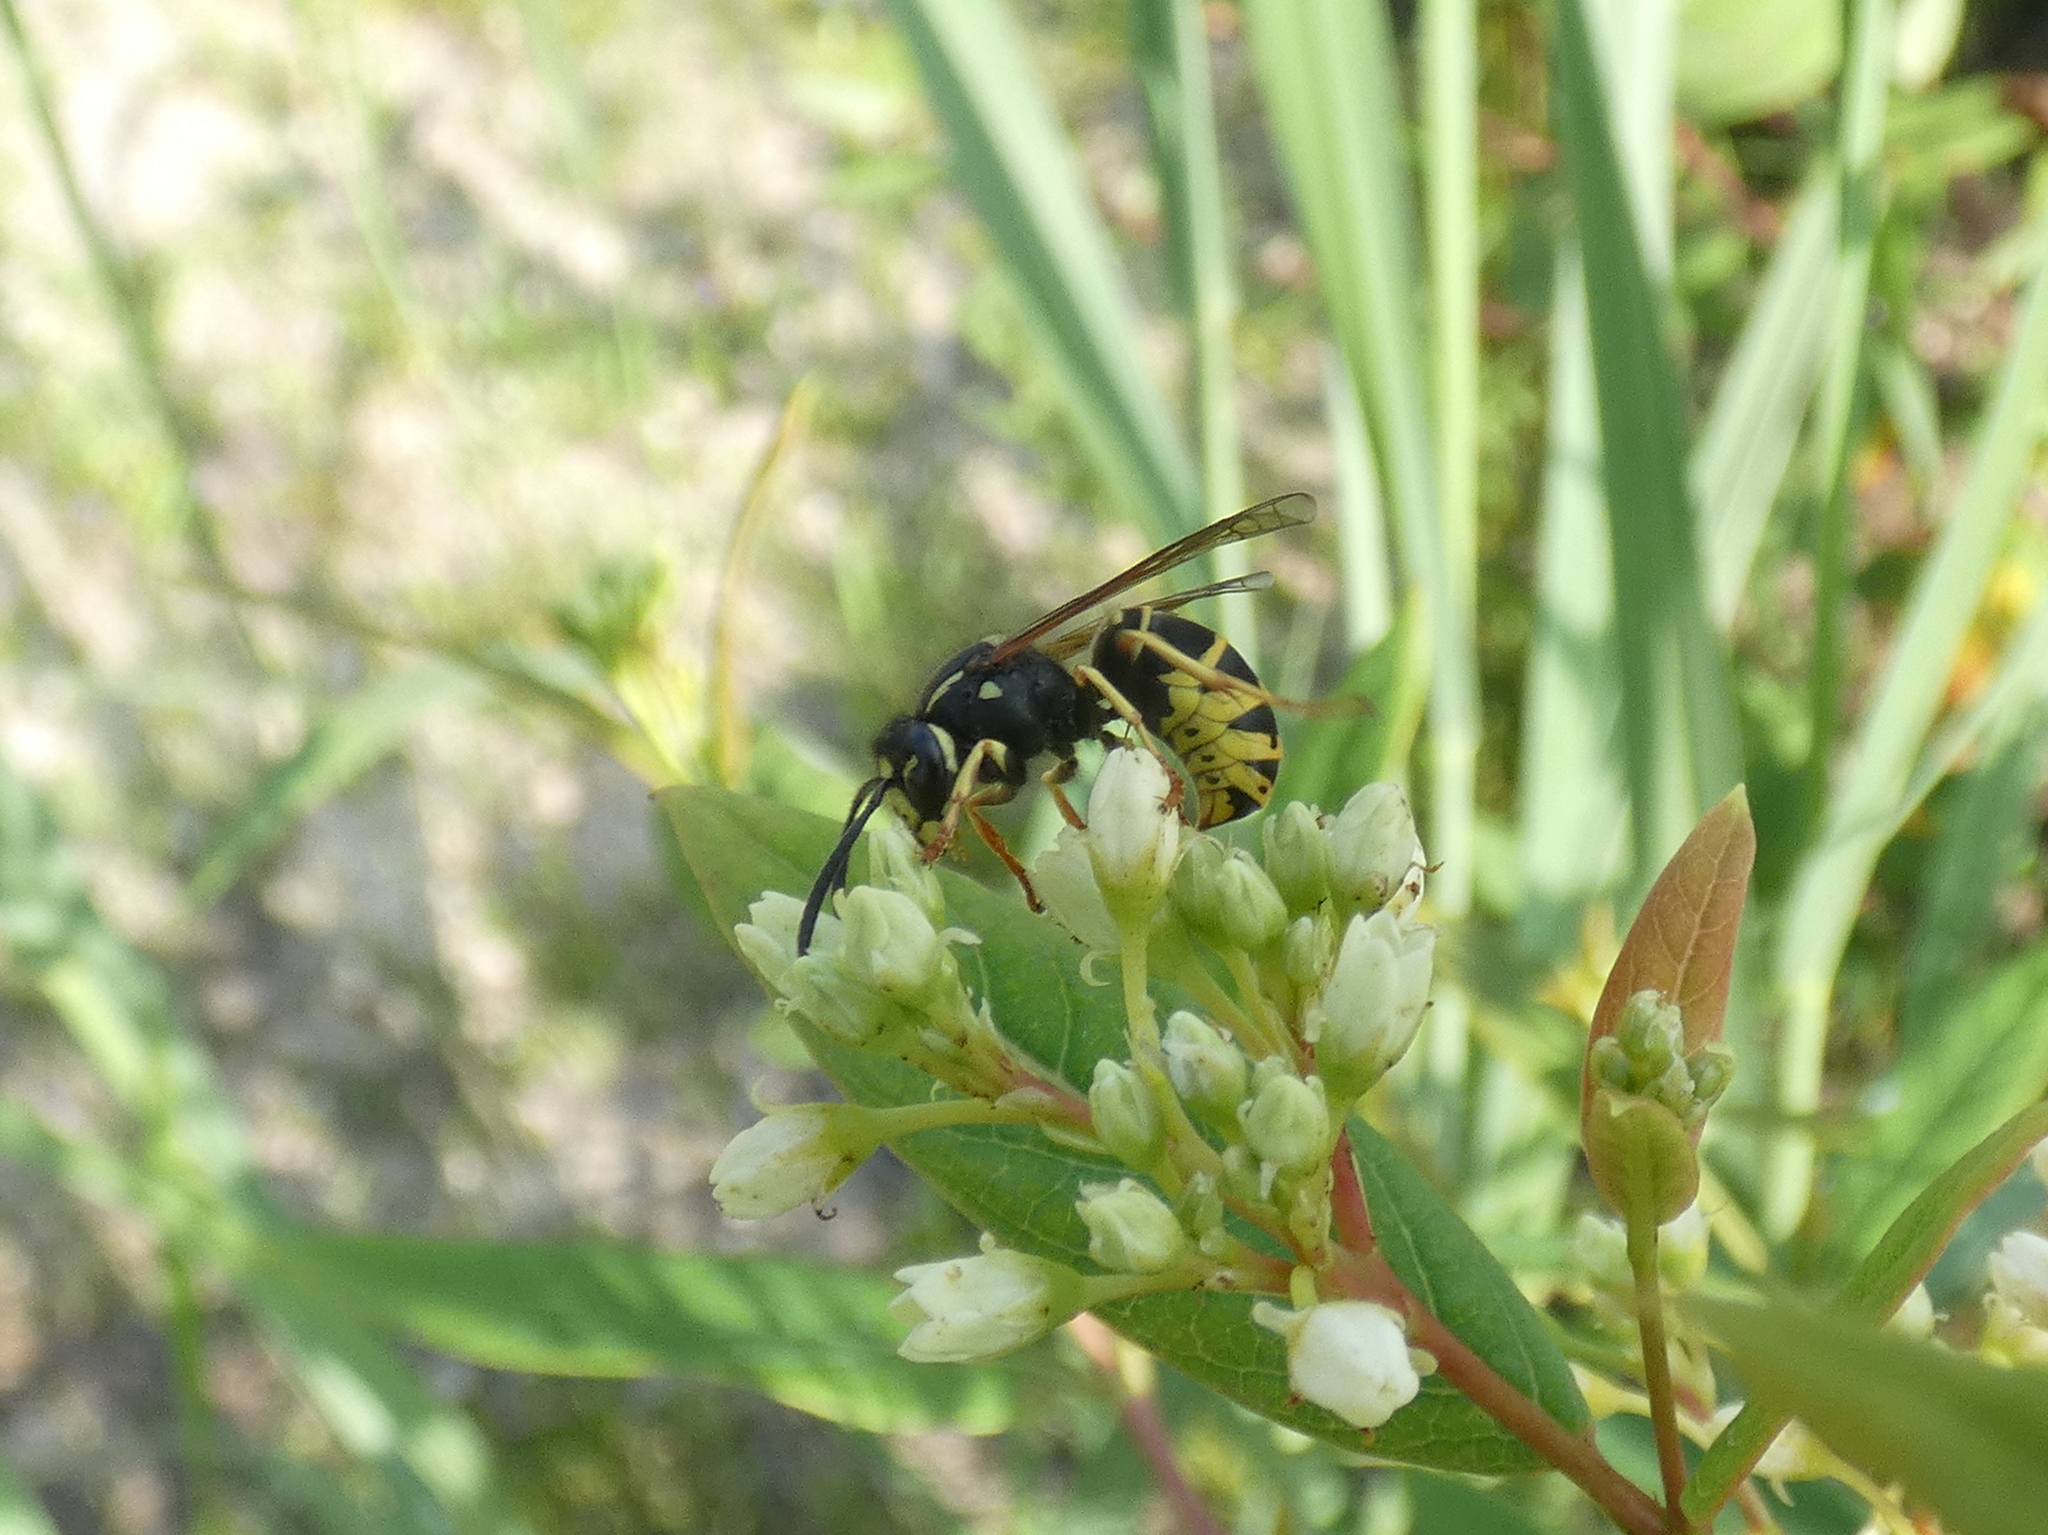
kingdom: Animalia
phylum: Arthropoda
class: Insecta
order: Hymenoptera
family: Vespidae
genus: Vespula
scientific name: Vespula vidua
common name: Widow yellowjacket
